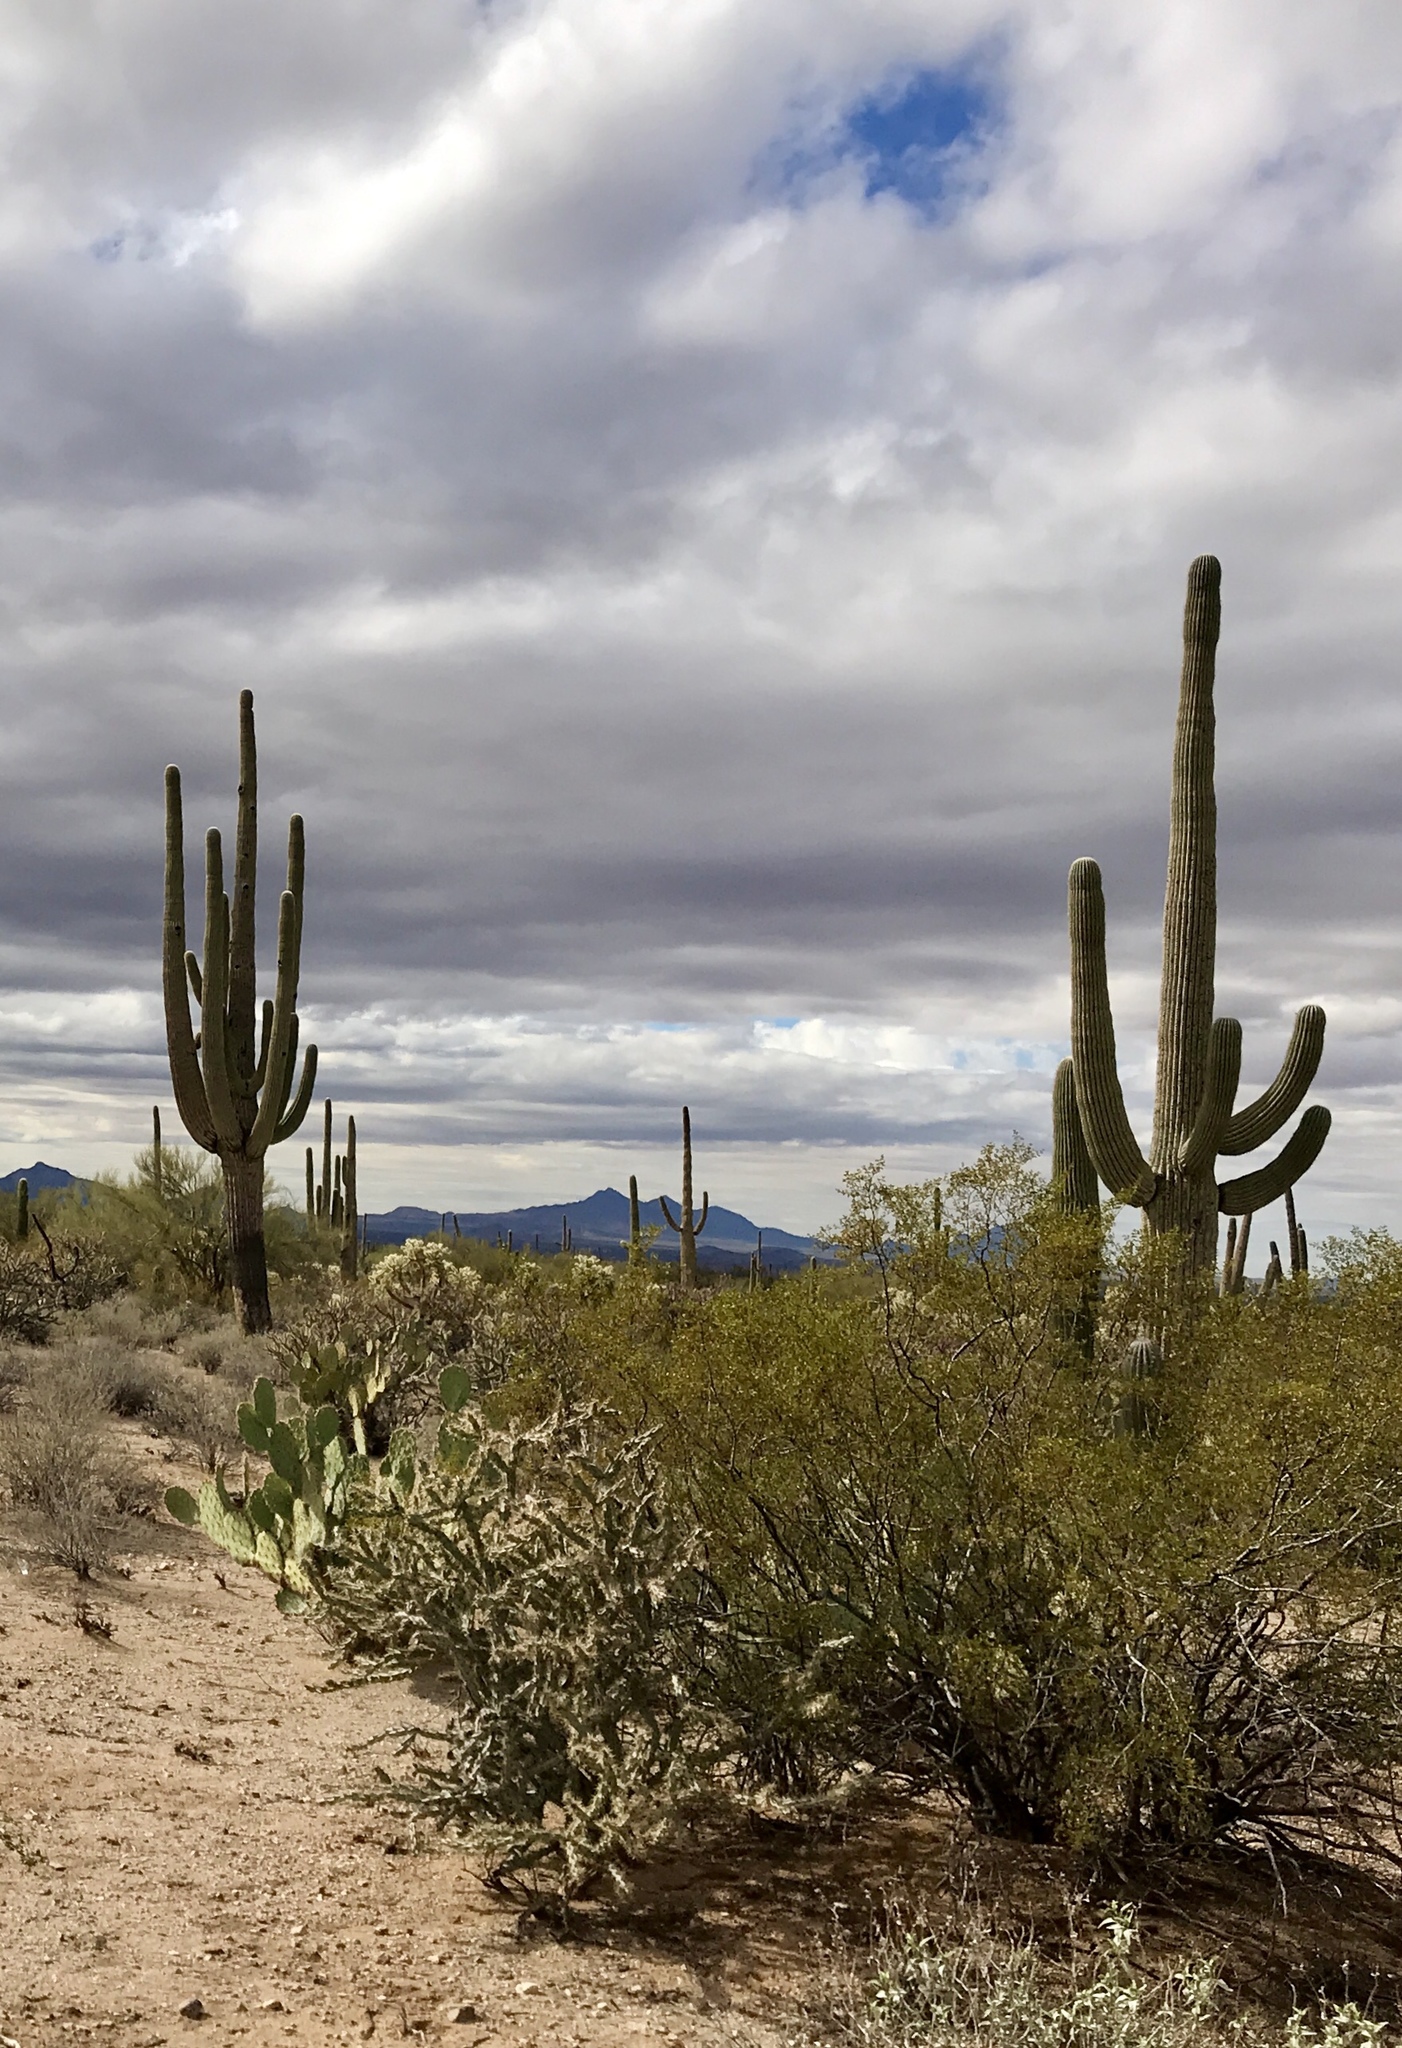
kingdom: Plantae
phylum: Tracheophyta
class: Magnoliopsida
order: Caryophyllales
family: Cactaceae
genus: Carnegiea
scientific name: Carnegiea gigantea
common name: Saguaro
